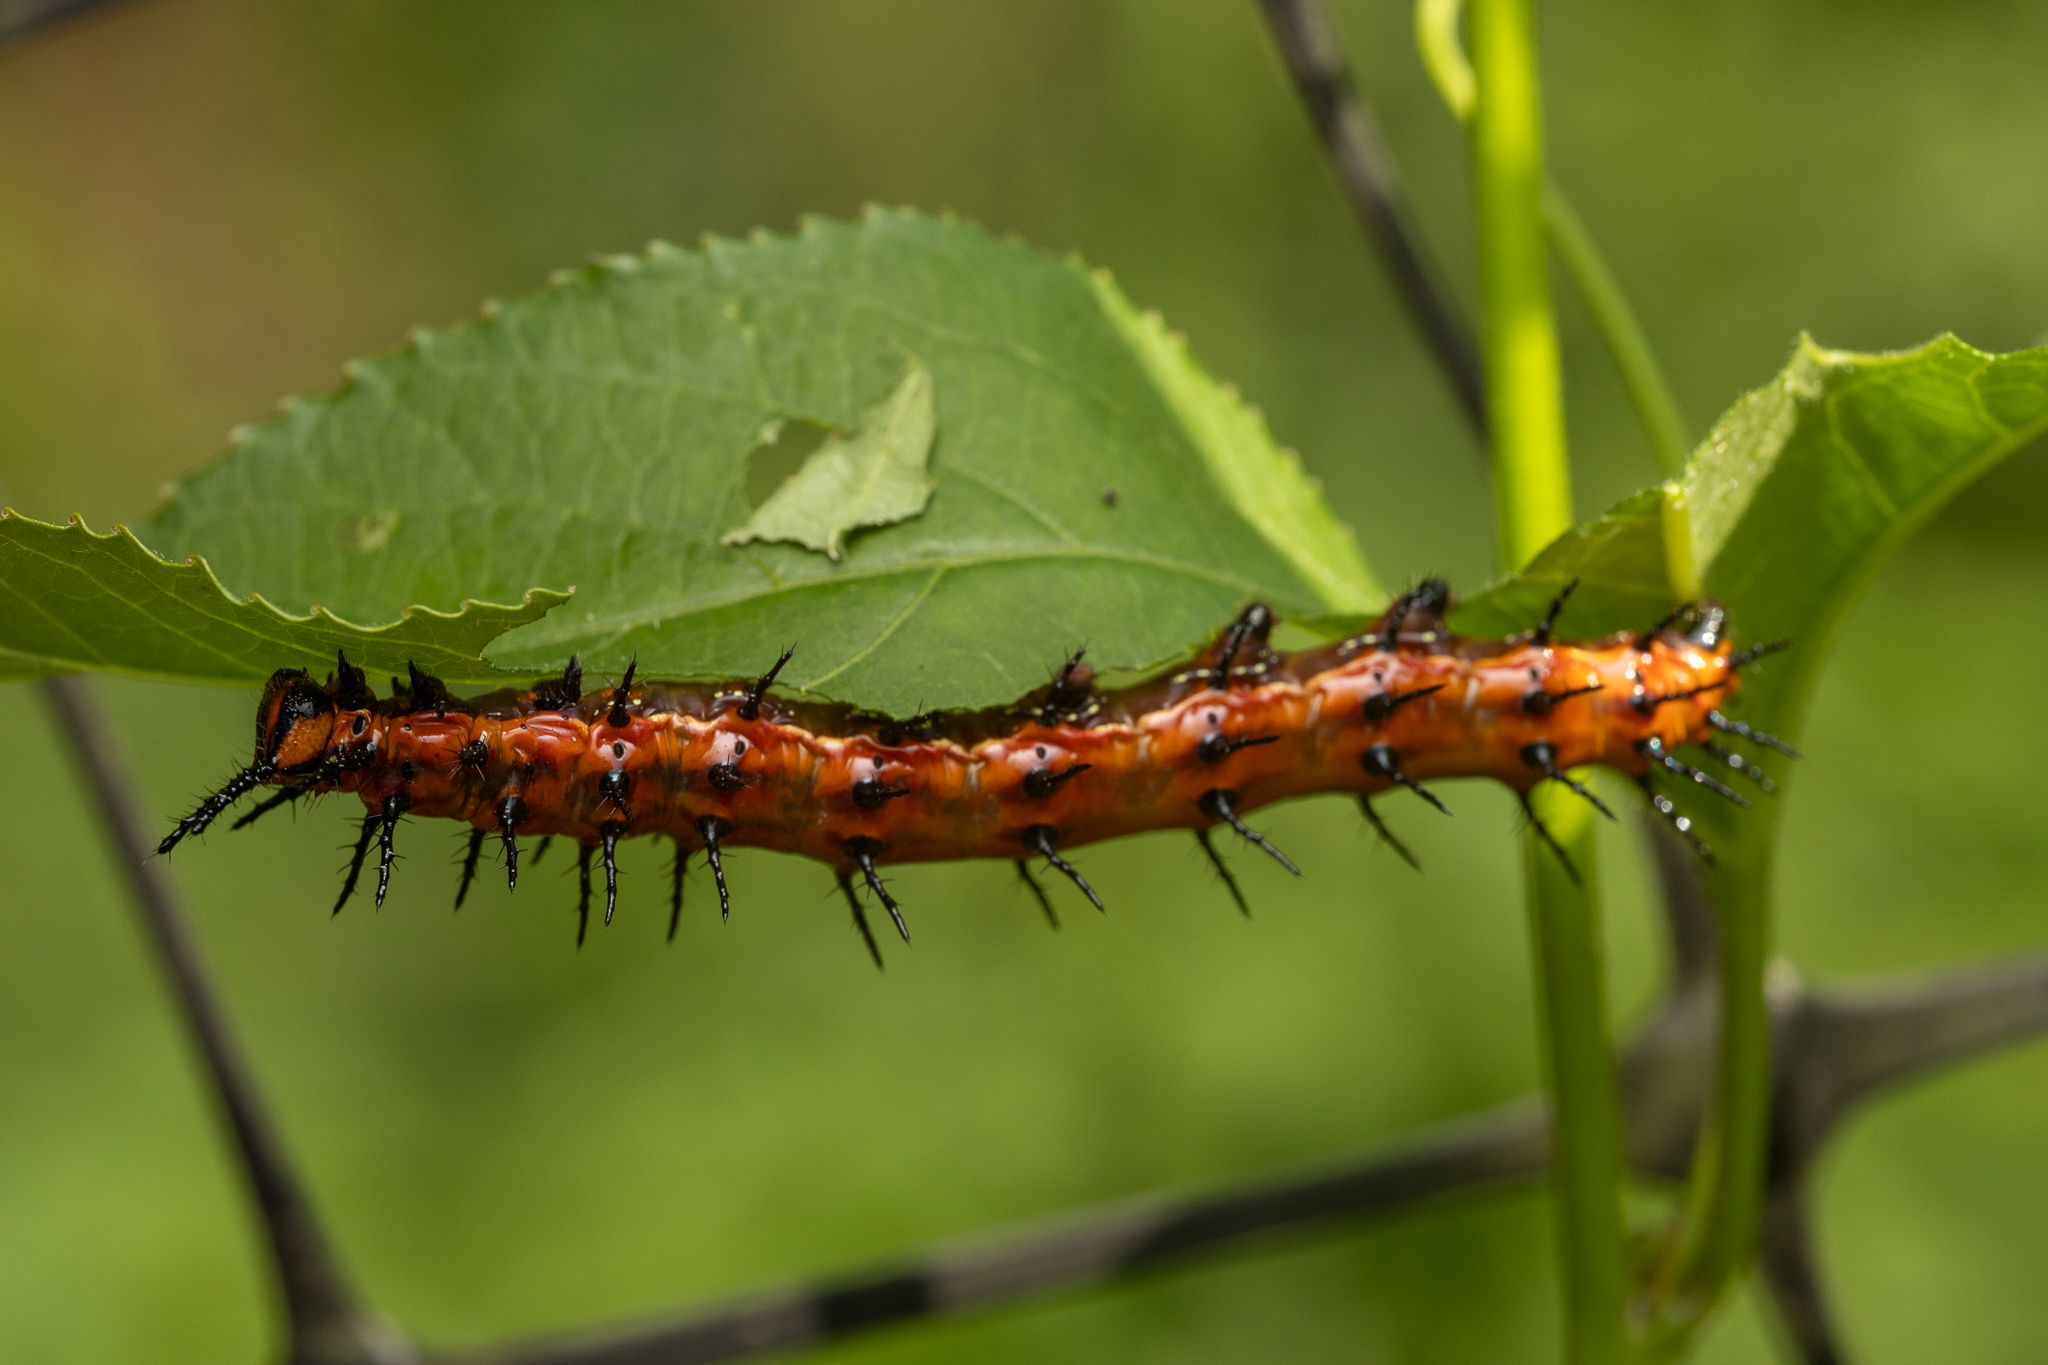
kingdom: Animalia
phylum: Arthropoda
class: Insecta
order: Lepidoptera
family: Nymphalidae
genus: Dione
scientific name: Dione vanillae
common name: Gulf fritillary
